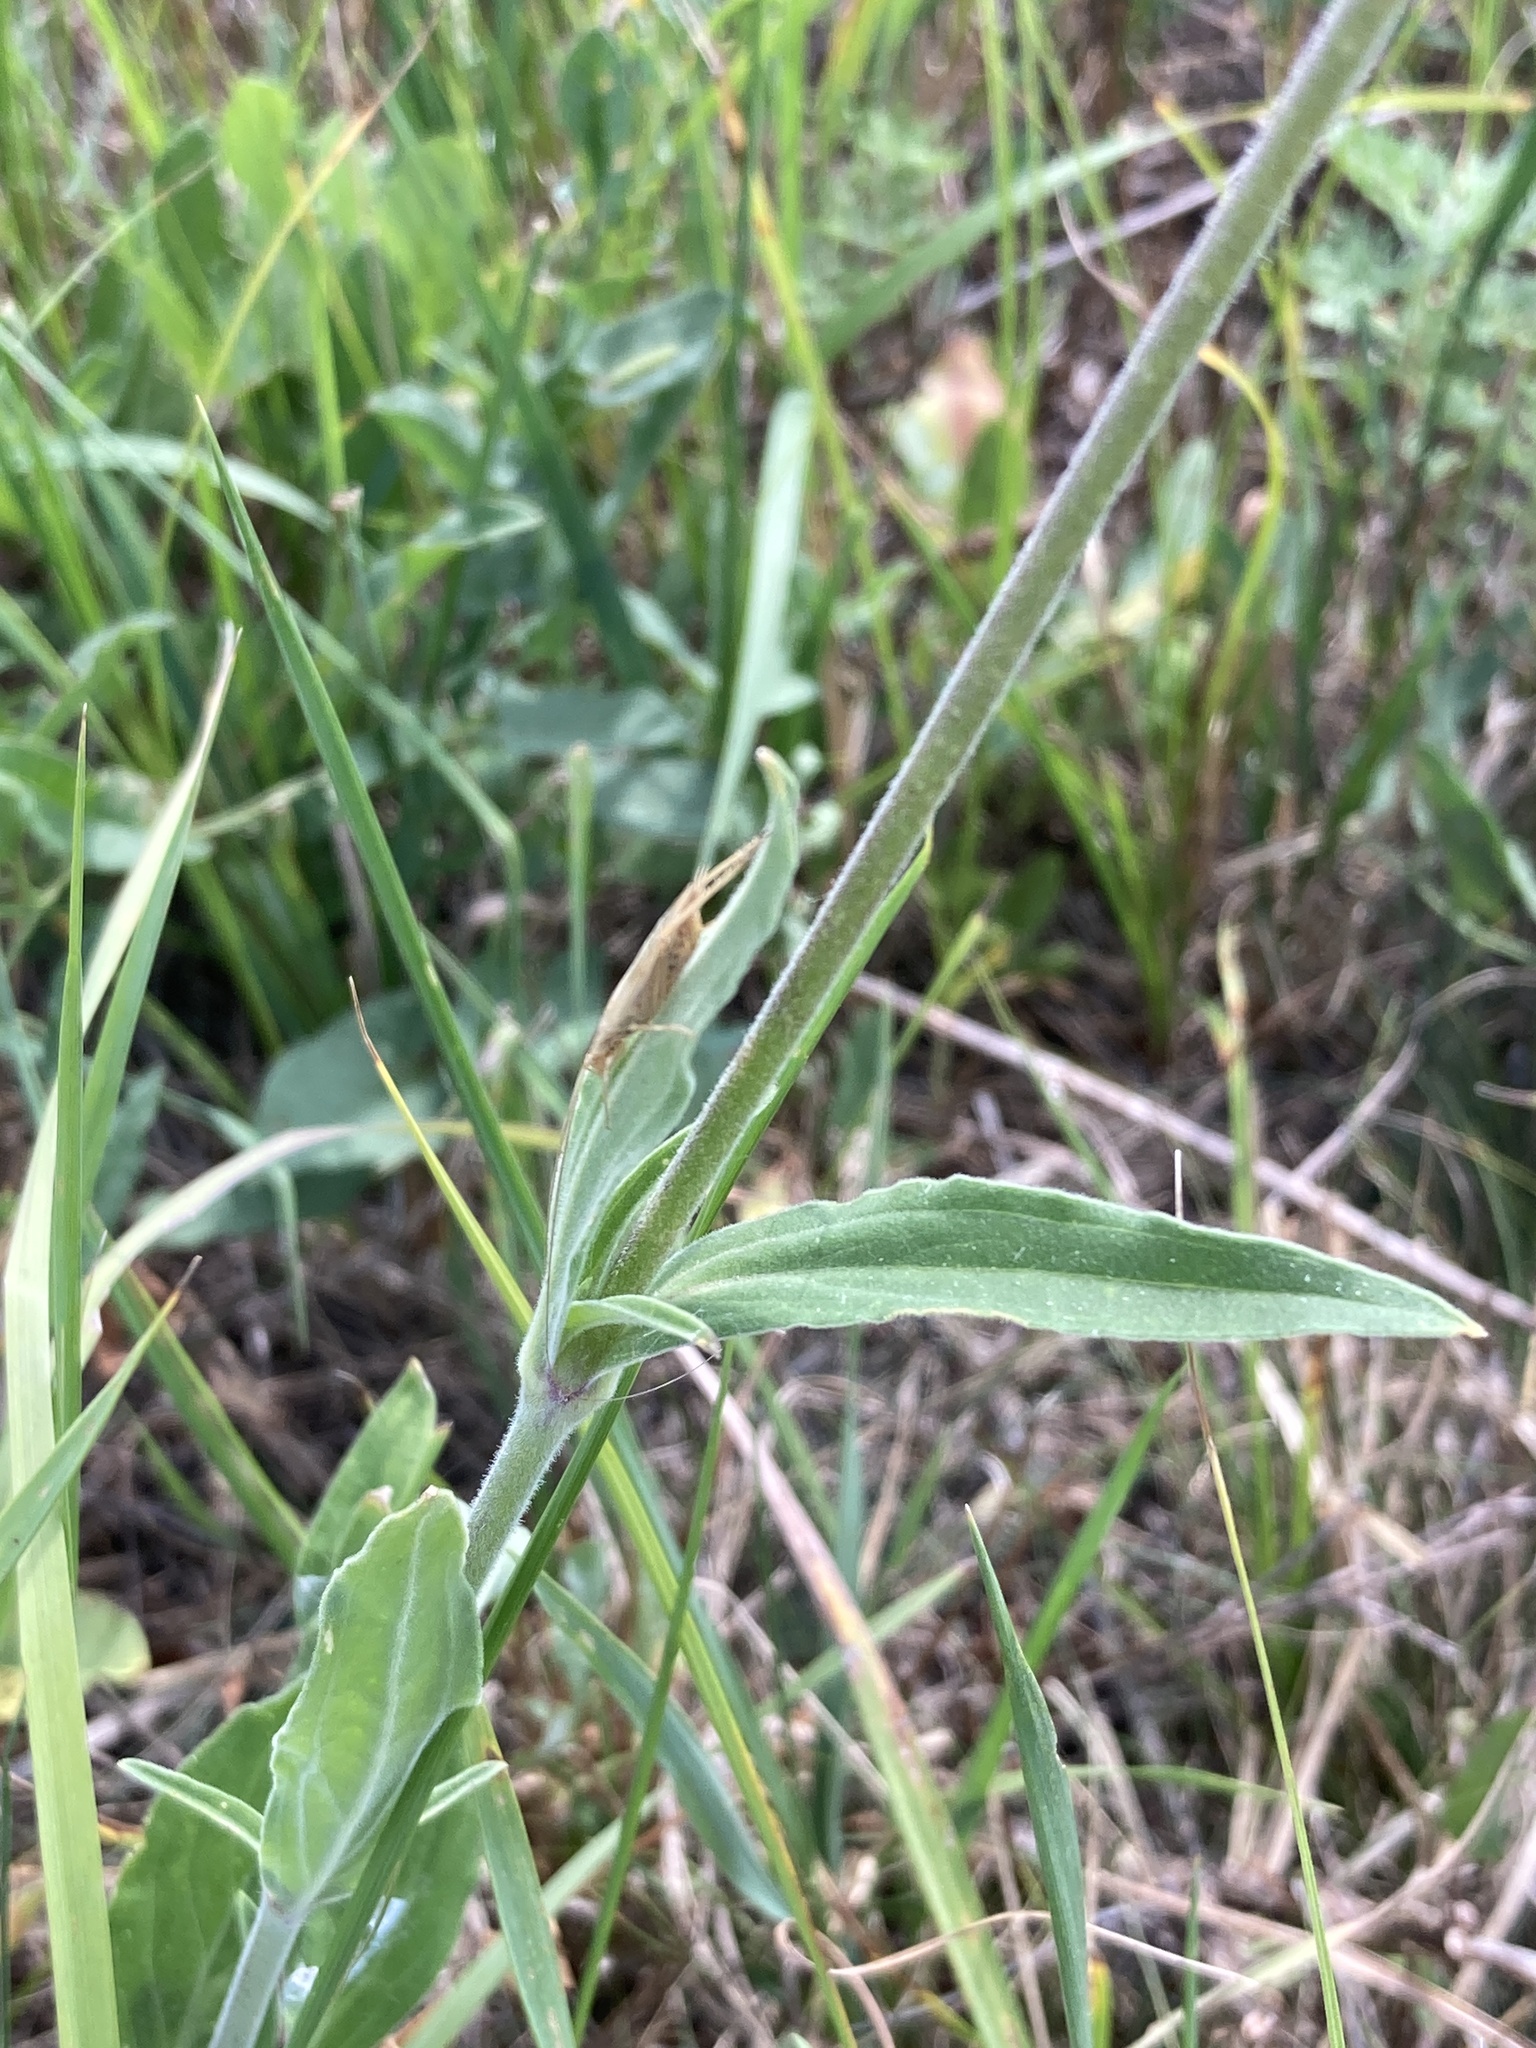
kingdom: Plantae
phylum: Tracheophyta
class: Magnoliopsida
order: Caryophyllales
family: Caryophyllaceae
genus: Silene
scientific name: Silene latifolia
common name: White campion
